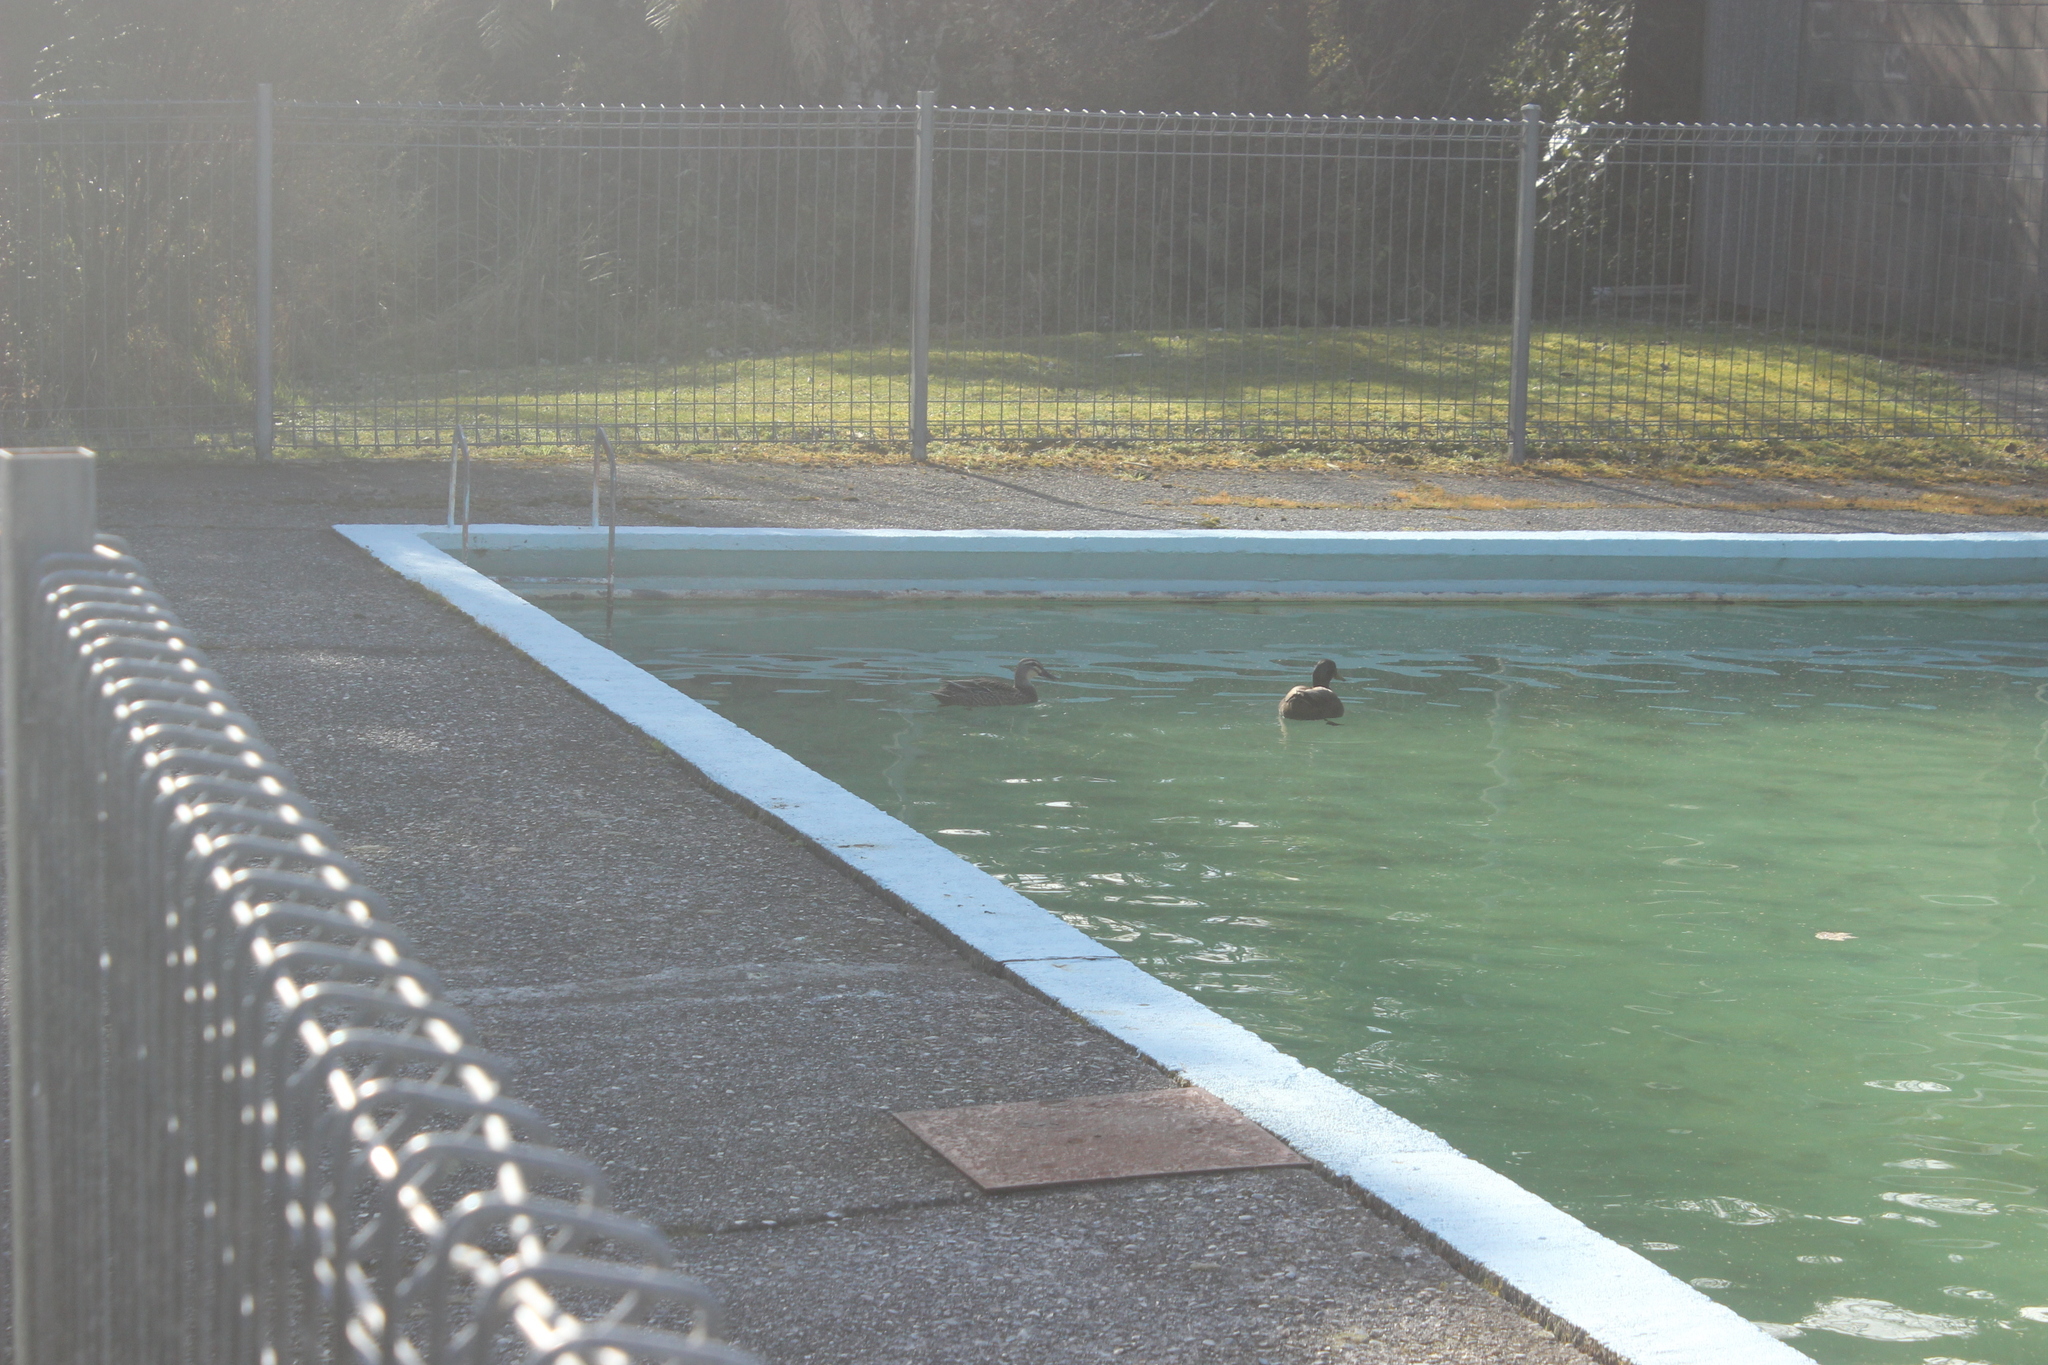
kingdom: Animalia
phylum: Chordata
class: Aves
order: Anseriformes
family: Anatidae
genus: Anas
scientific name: Anas
